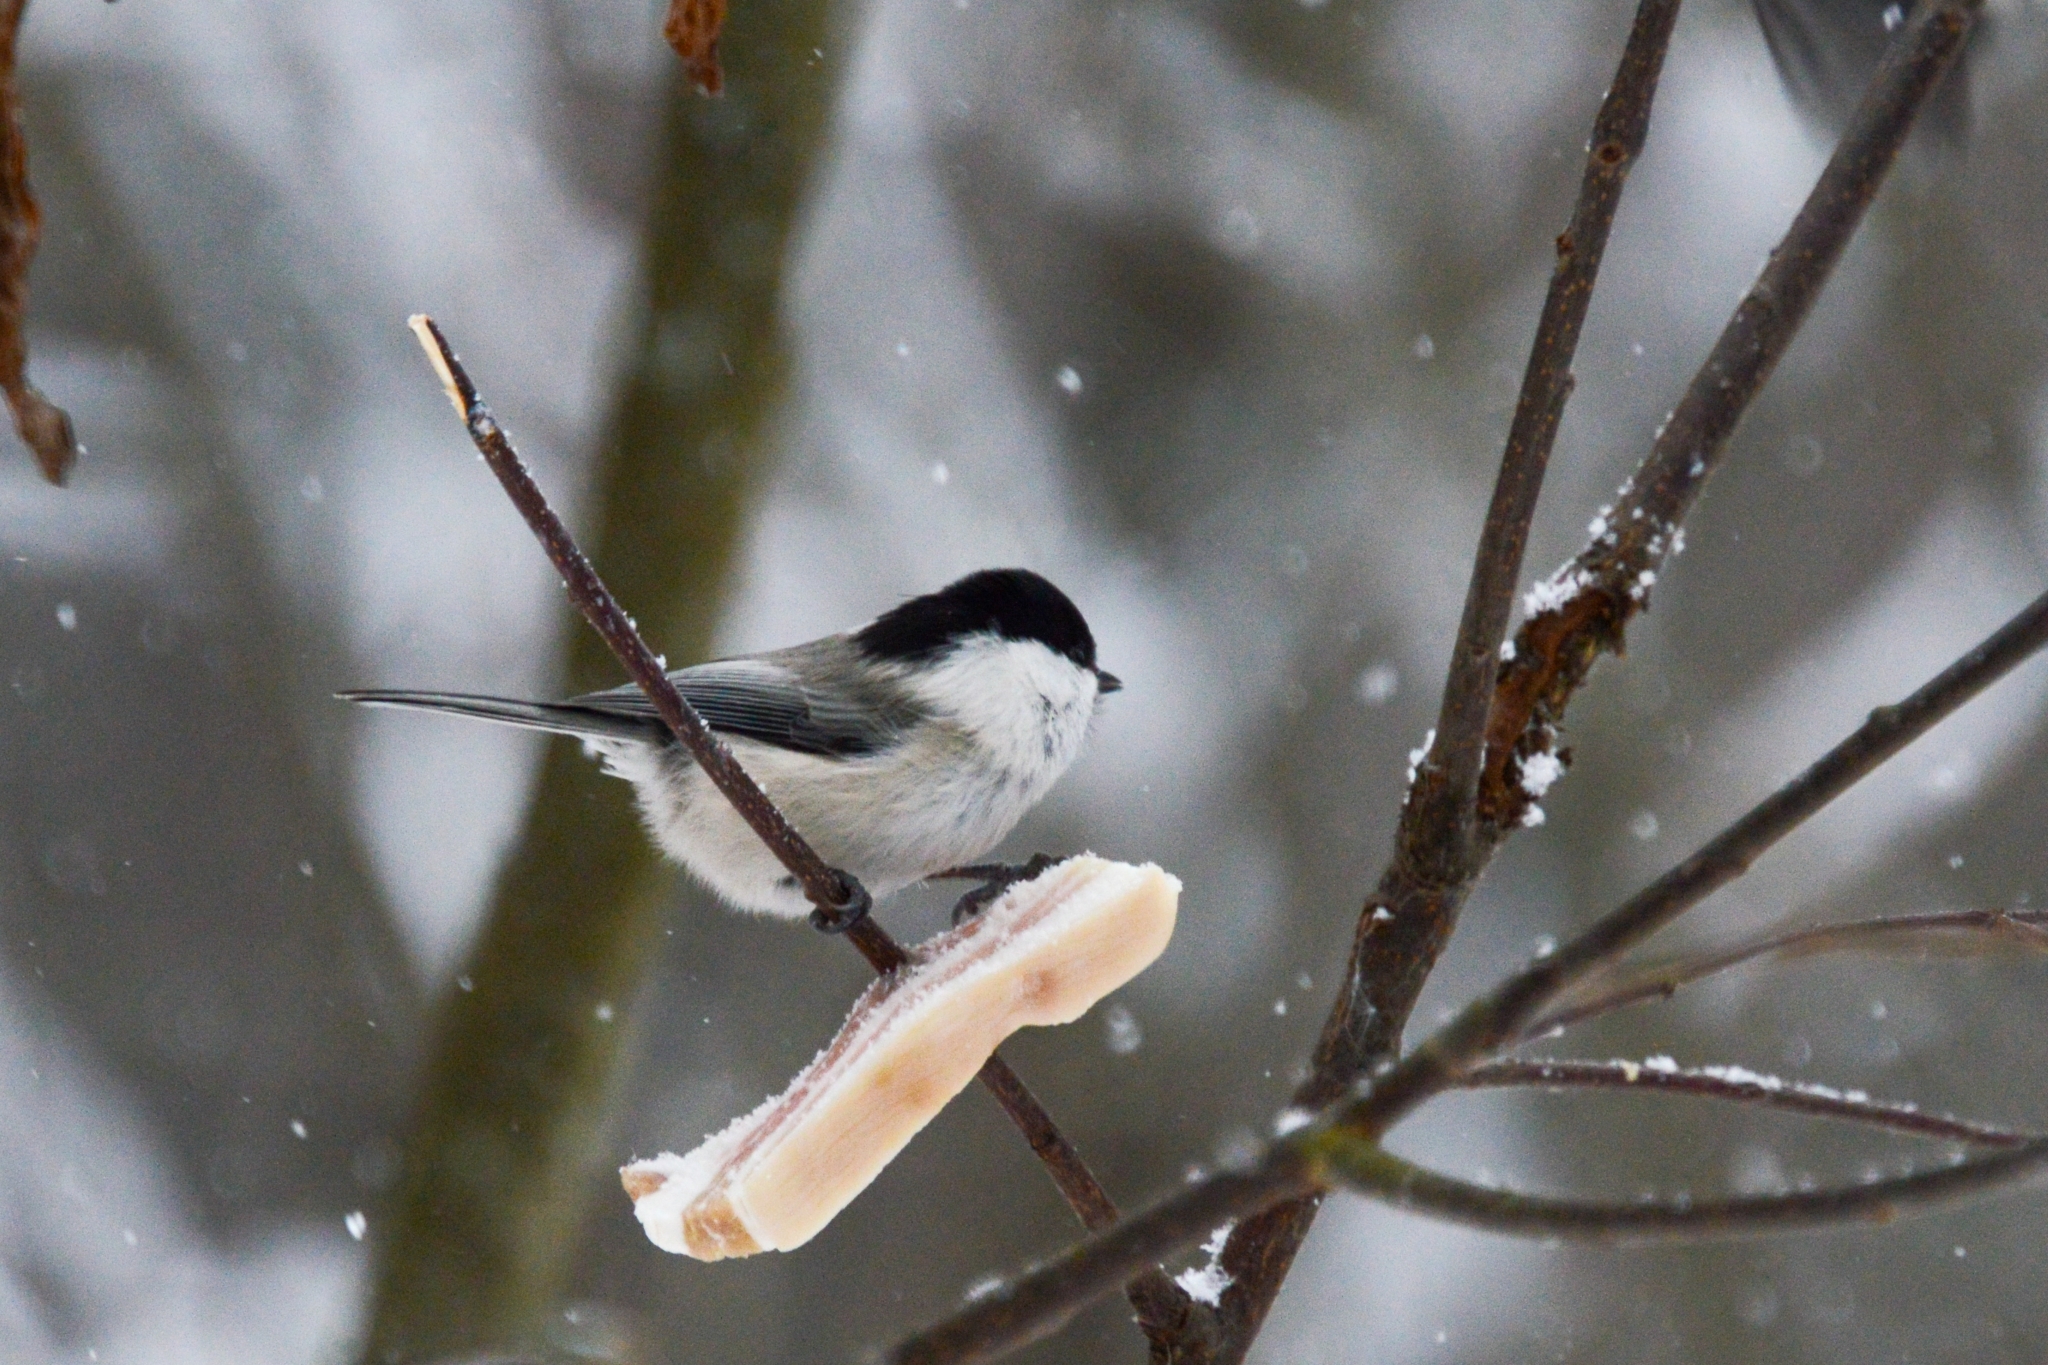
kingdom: Animalia
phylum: Chordata
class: Aves
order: Passeriformes
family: Paridae
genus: Poecile
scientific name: Poecile montanus
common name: Willow tit
